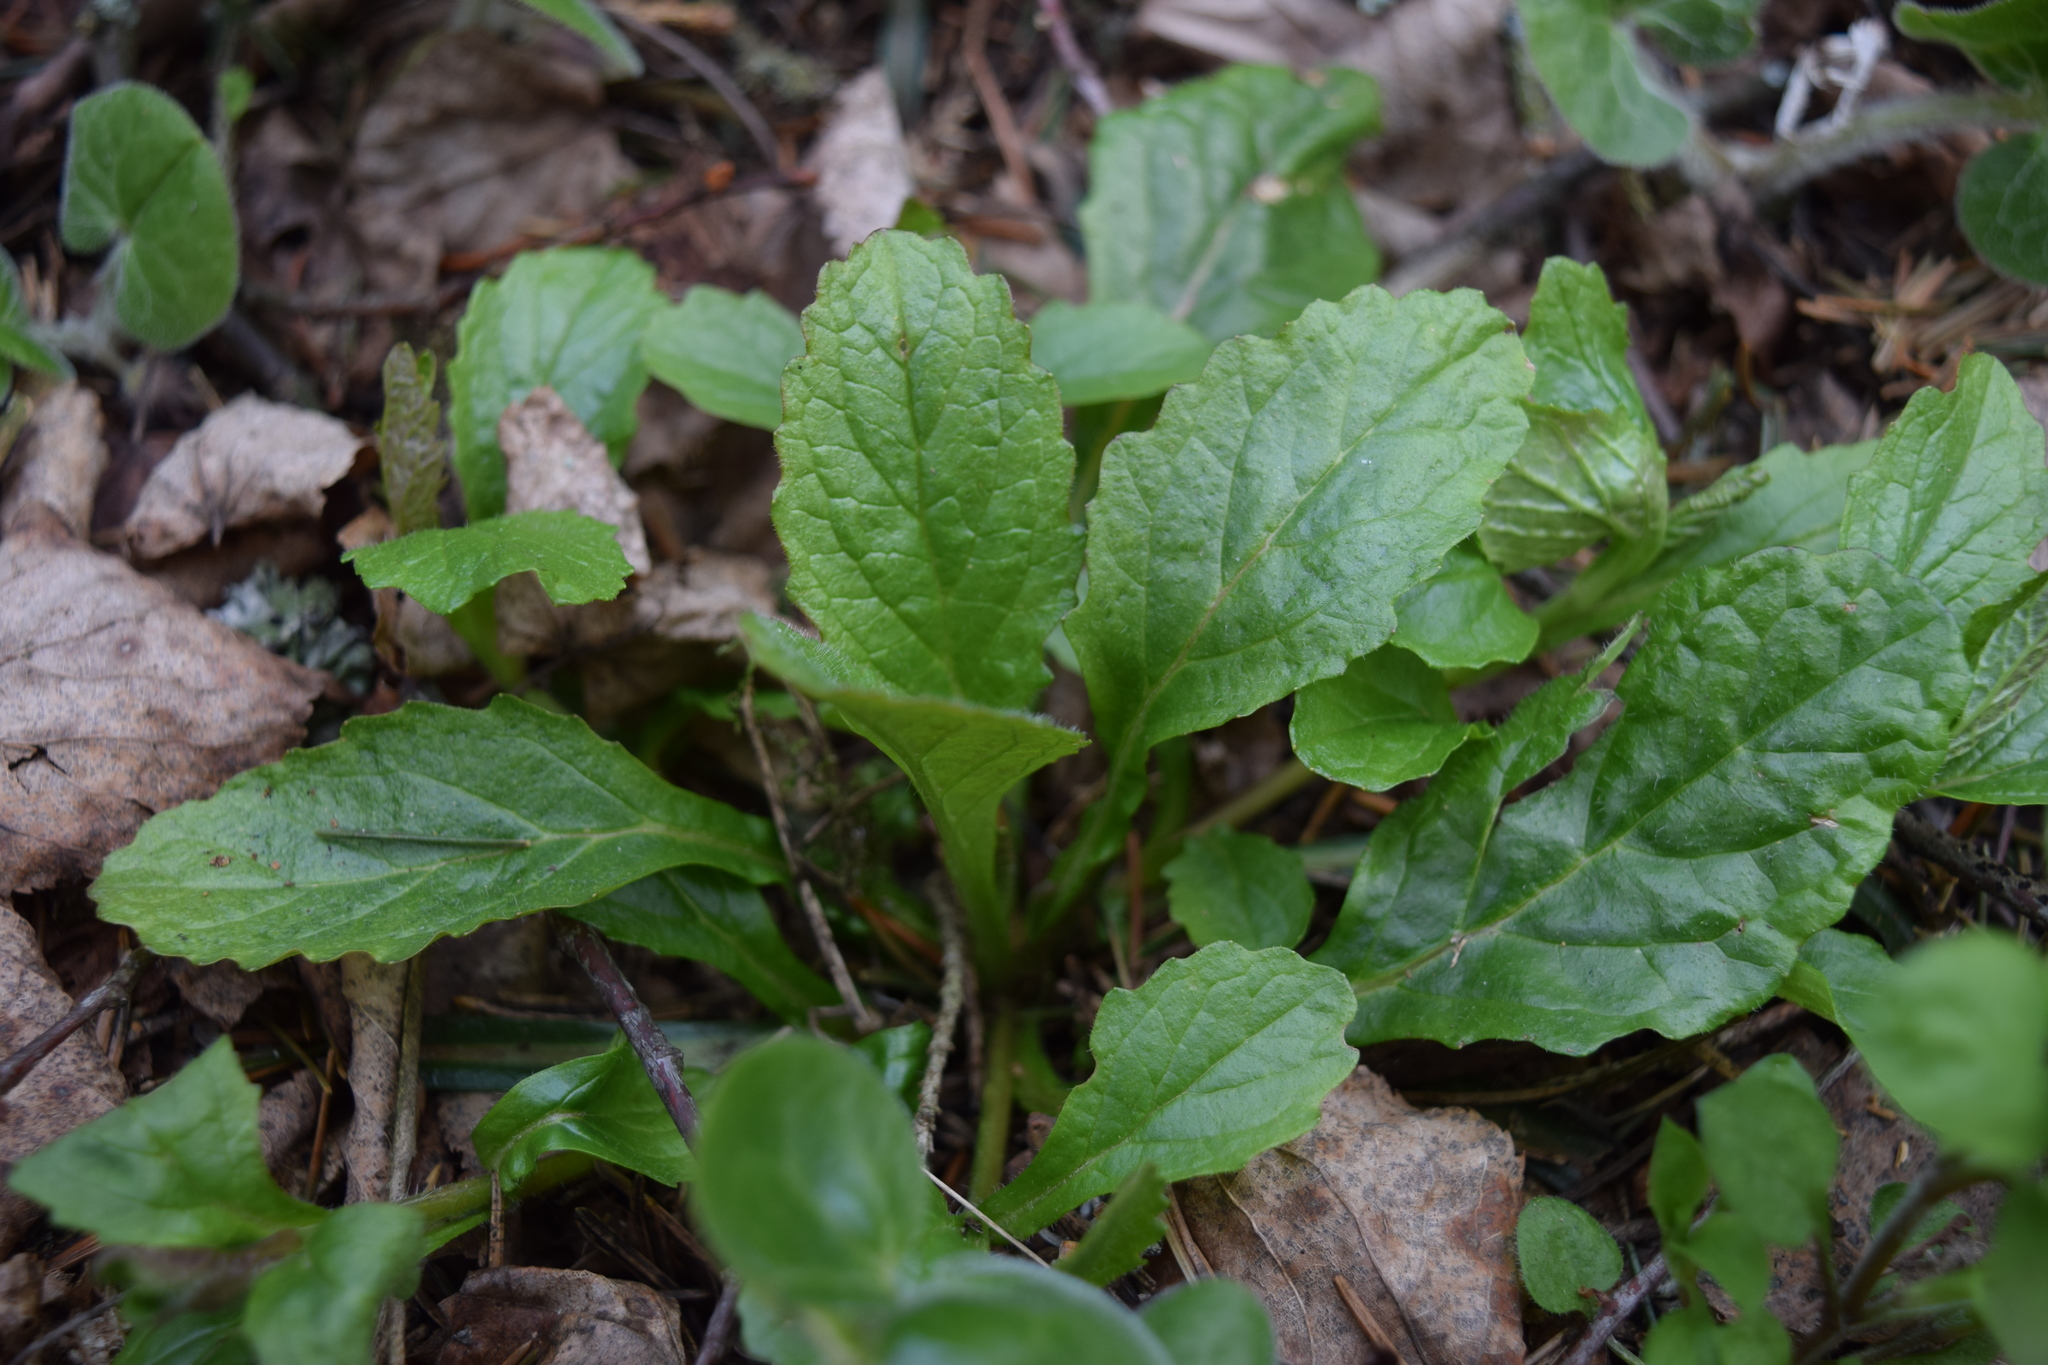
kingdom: Plantae
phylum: Tracheophyta
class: Magnoliopsida
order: Lamiales
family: Lamiaceae
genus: Ajuga
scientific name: Ajuga reptans
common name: Bugle
